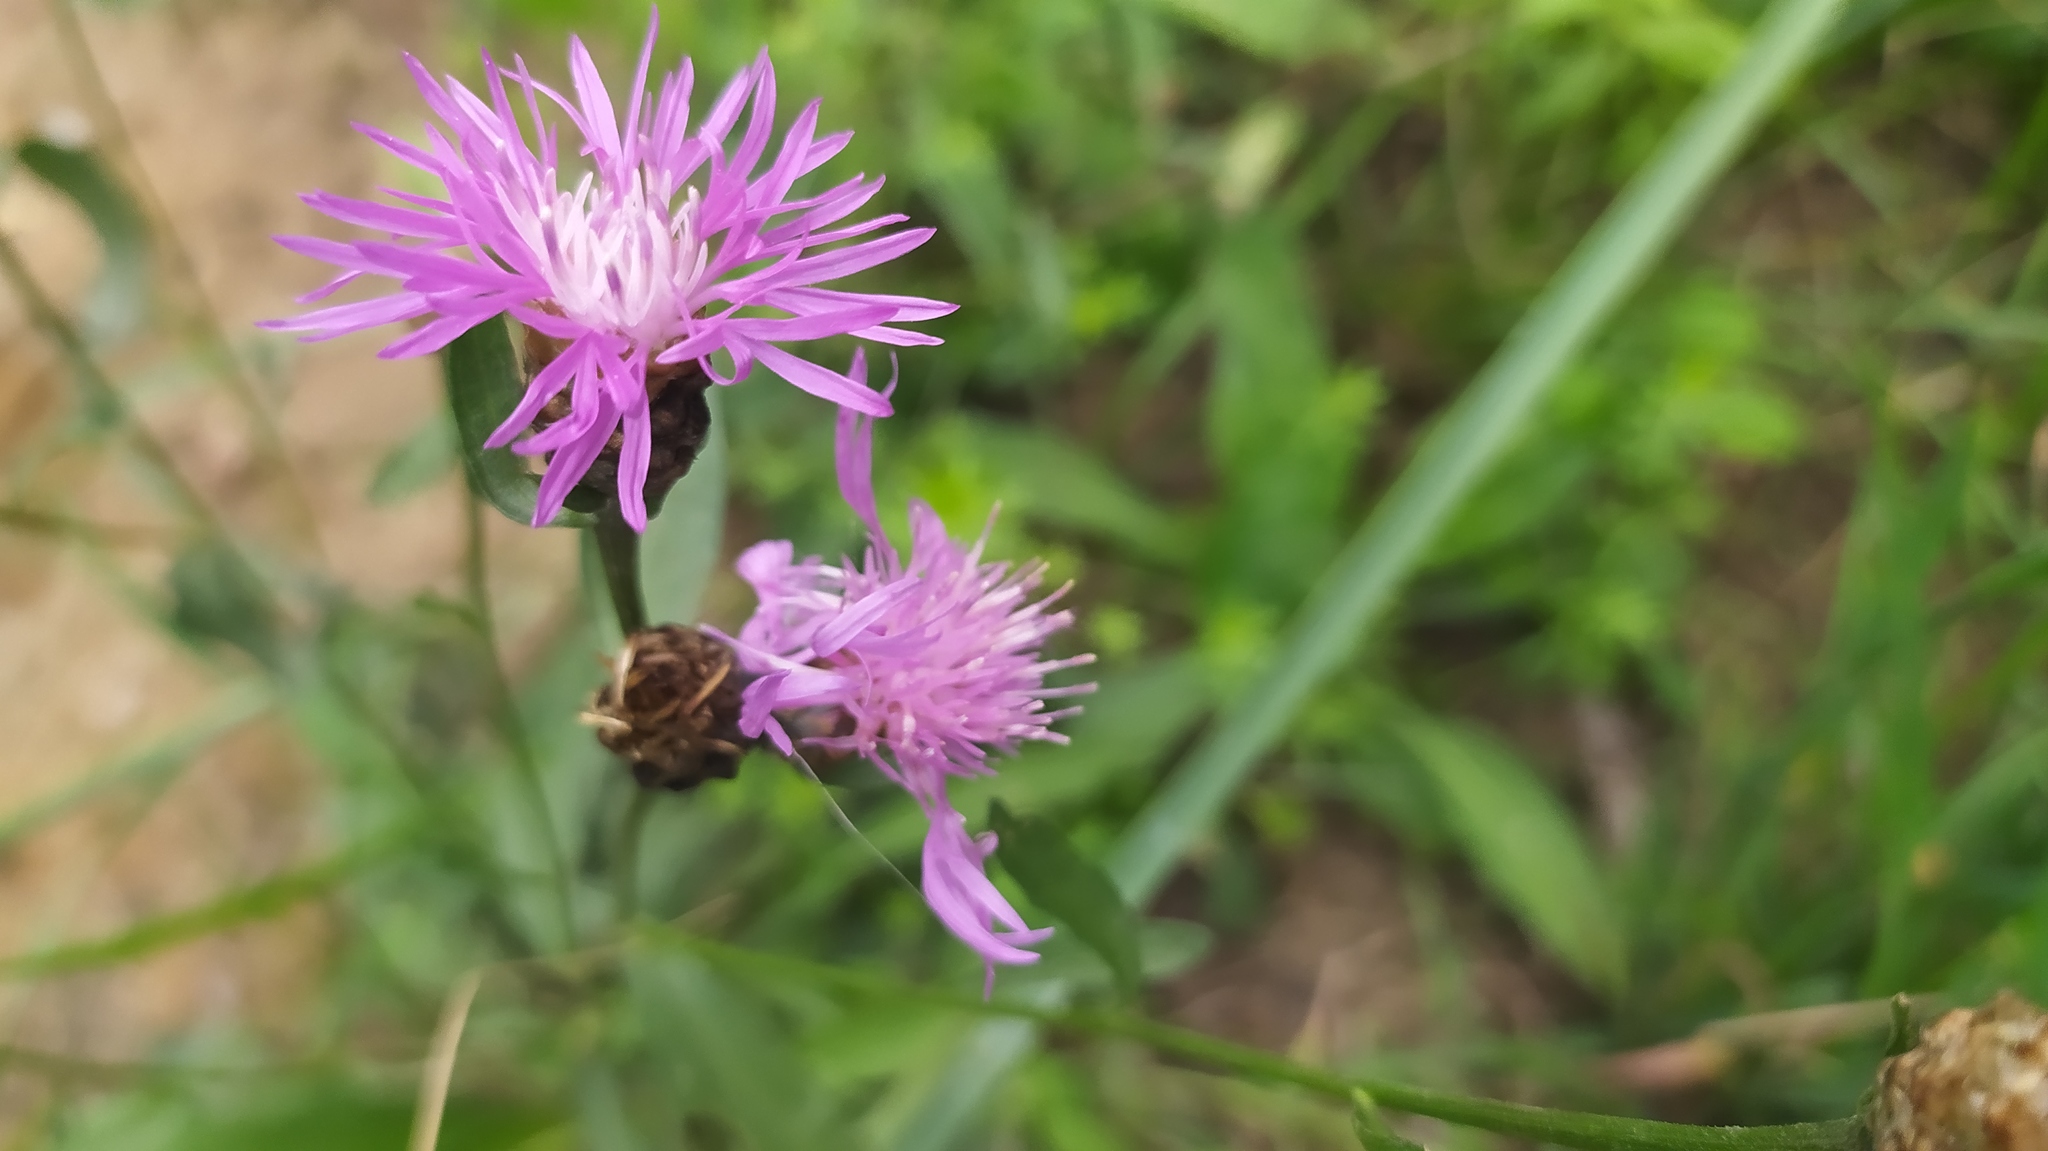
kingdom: Plantae
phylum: Tracheophyta
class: Magnoliopsida
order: Asterales
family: Asteraceae
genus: Centaurea
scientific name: Centaurea jacea
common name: Brown knapweed
